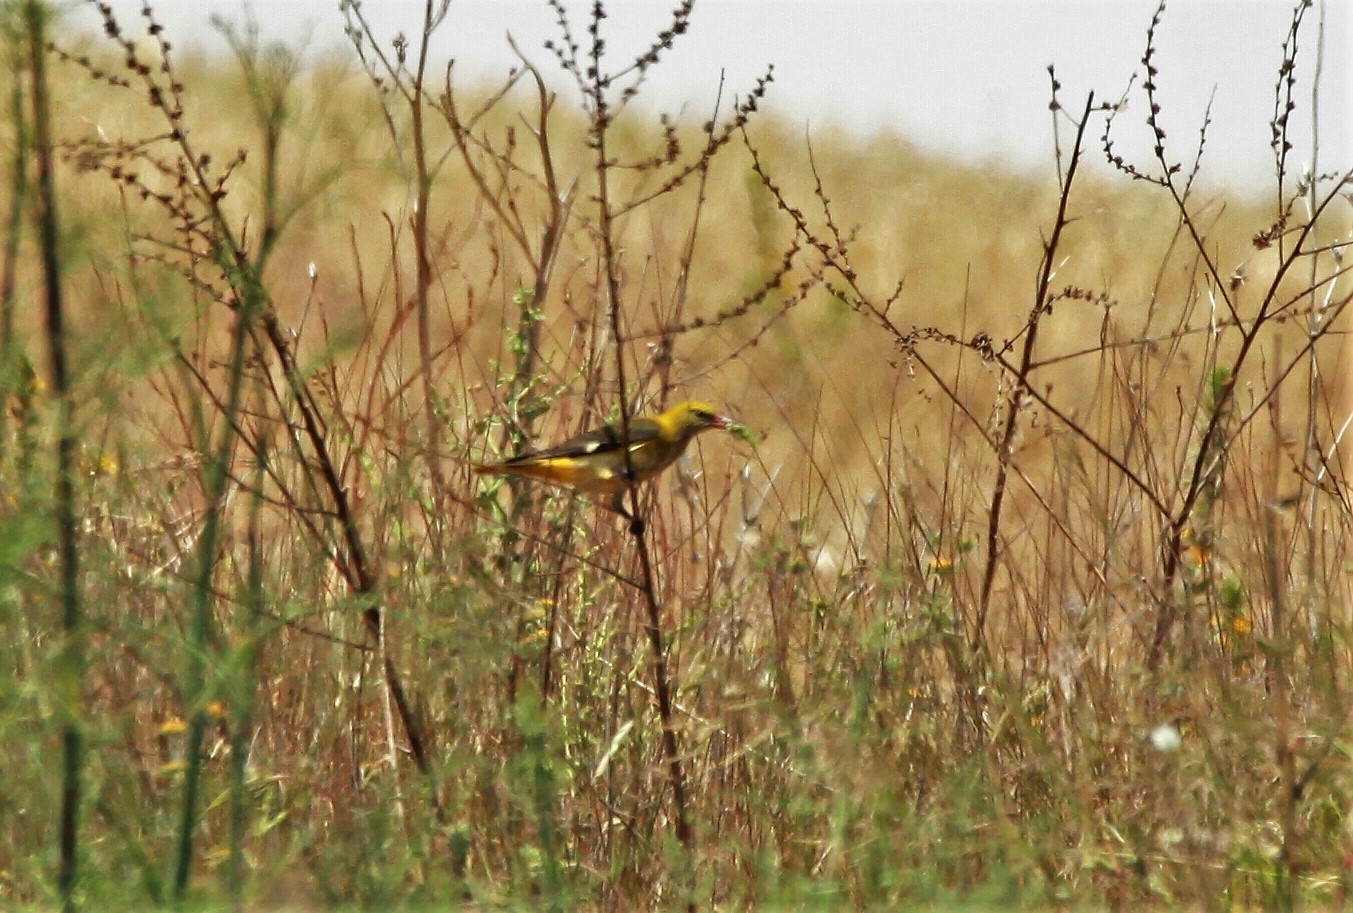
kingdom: Animalia
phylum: Chordata
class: Aves
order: Passeriformes
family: Oriolidae
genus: Oriolus
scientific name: Oriolus oriolus
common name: Eurasian golden oriole
